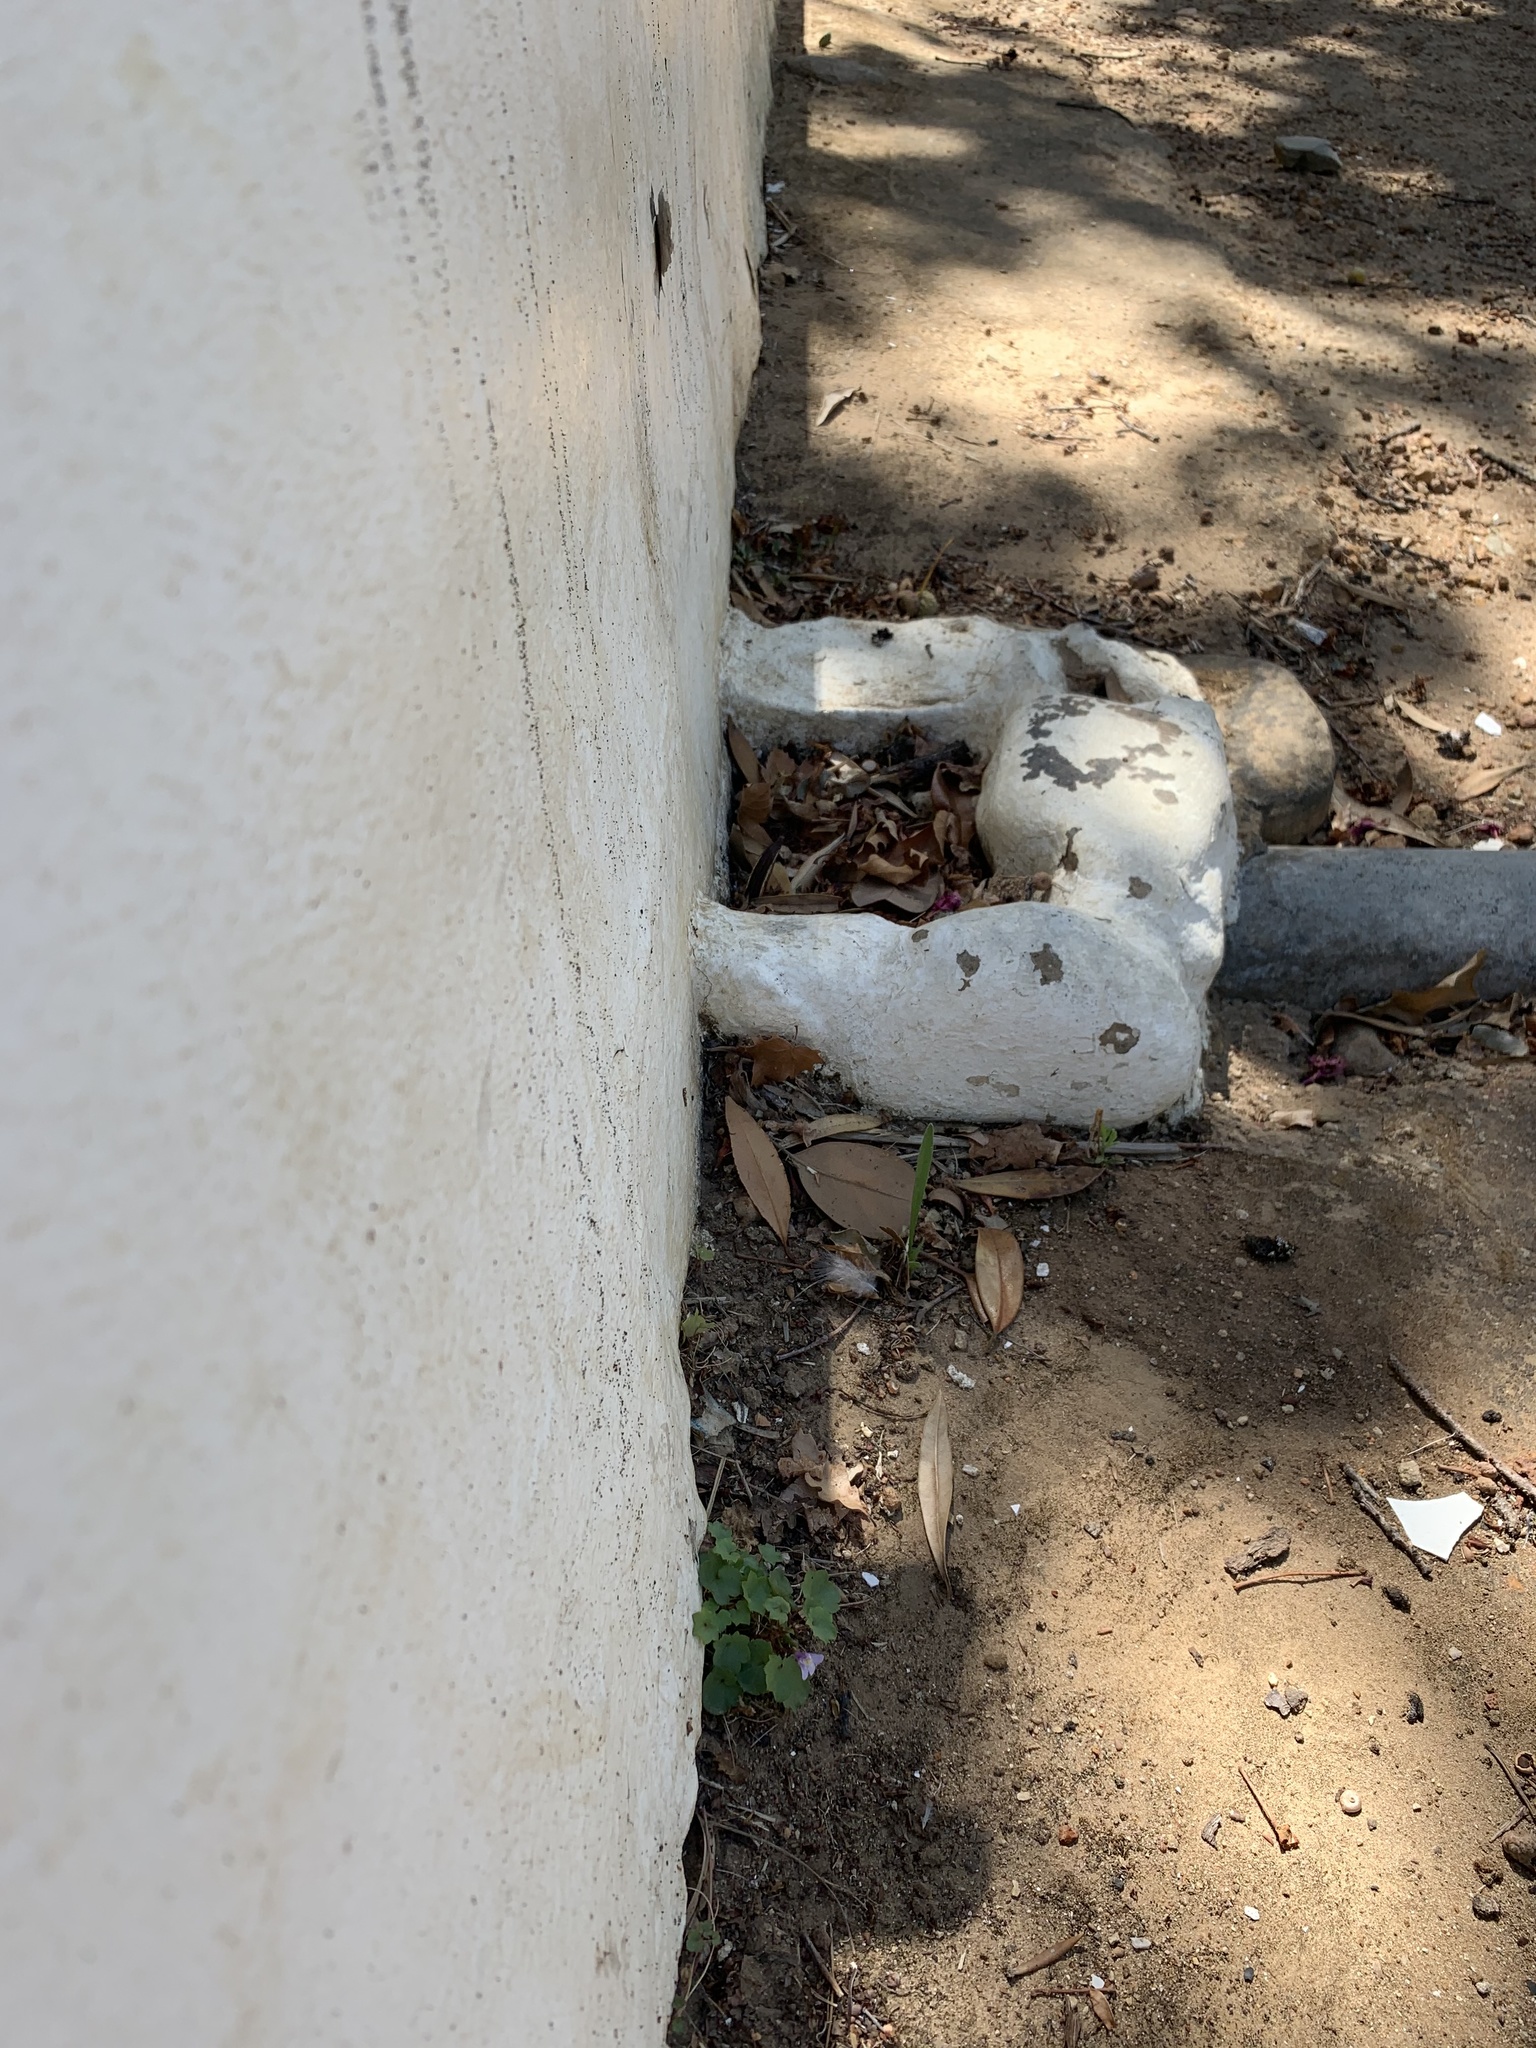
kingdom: Plantae
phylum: Tracheophyta
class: Magnoliopsida
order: Lamiales
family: Plantaginaceae
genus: Cymbalaria
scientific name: Cymbalaria muralis
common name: Ivy-leaved toadflax
